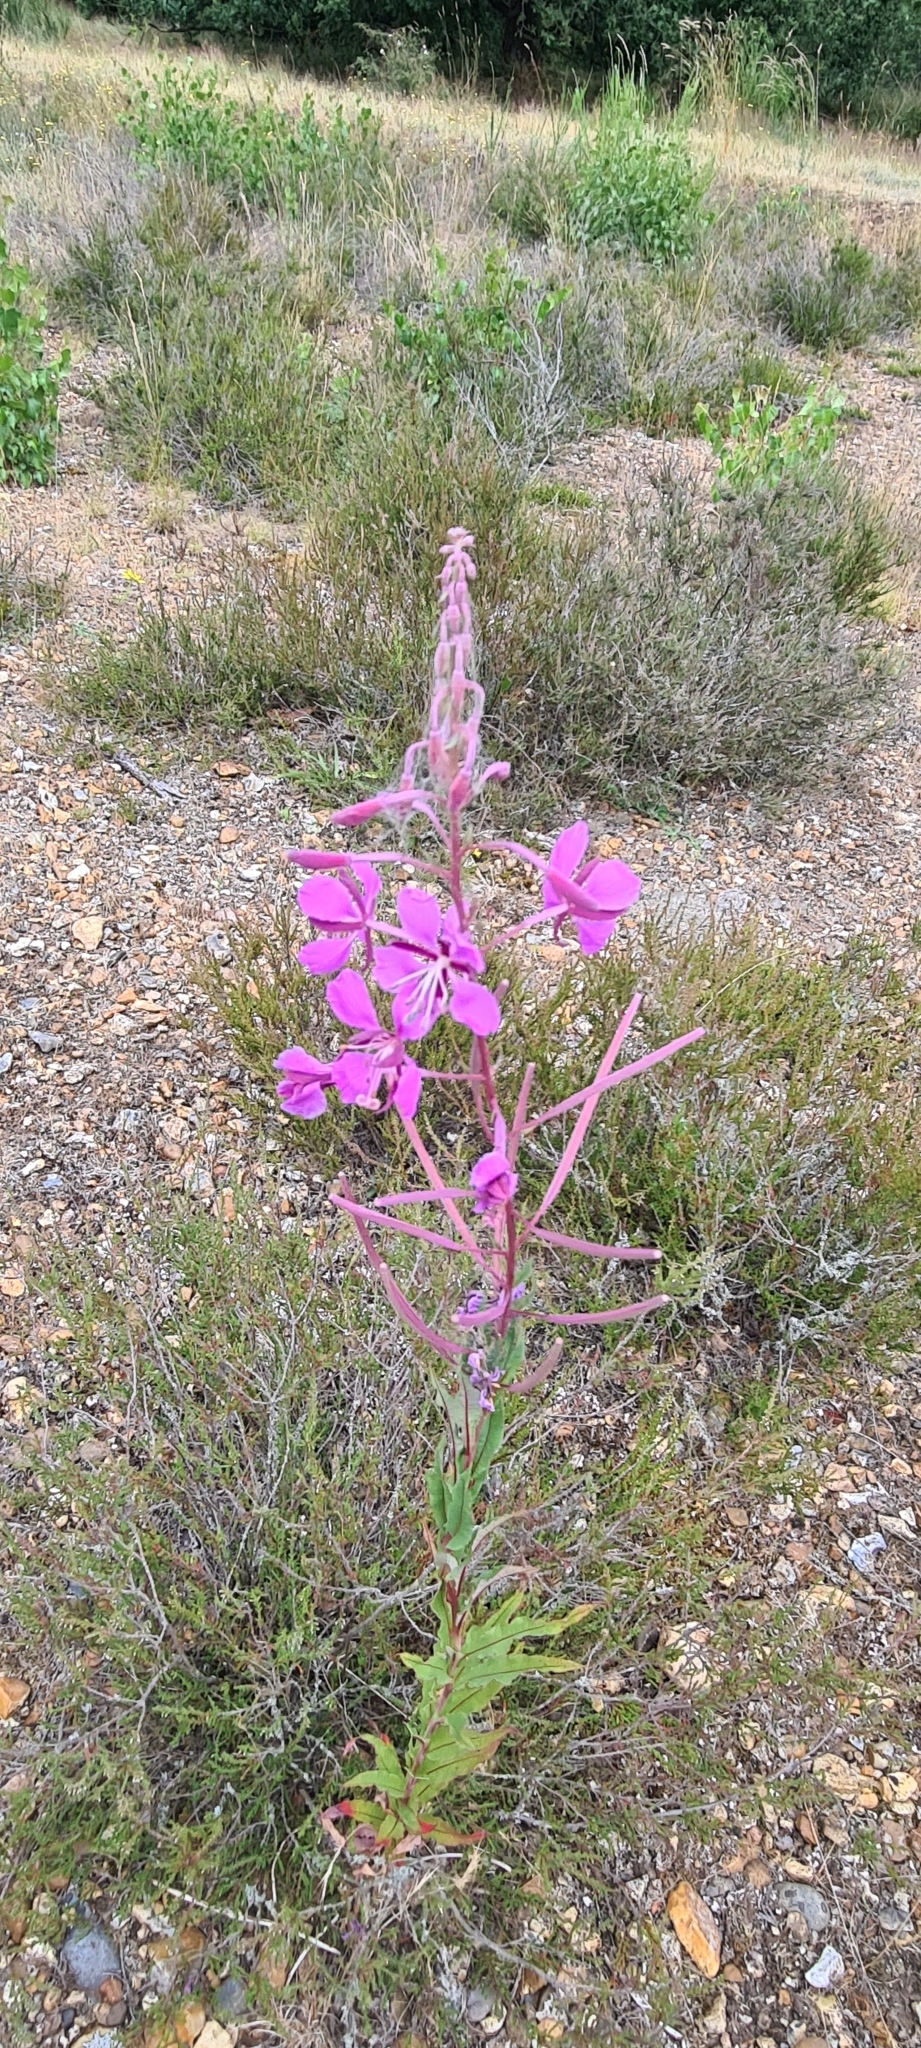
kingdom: Plantae
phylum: Tracheophyta
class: Magnoliopsida
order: Myrtales
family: Onagraceae
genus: Chamaenerion
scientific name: Chamaenerion angustifolium
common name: Fireweed
